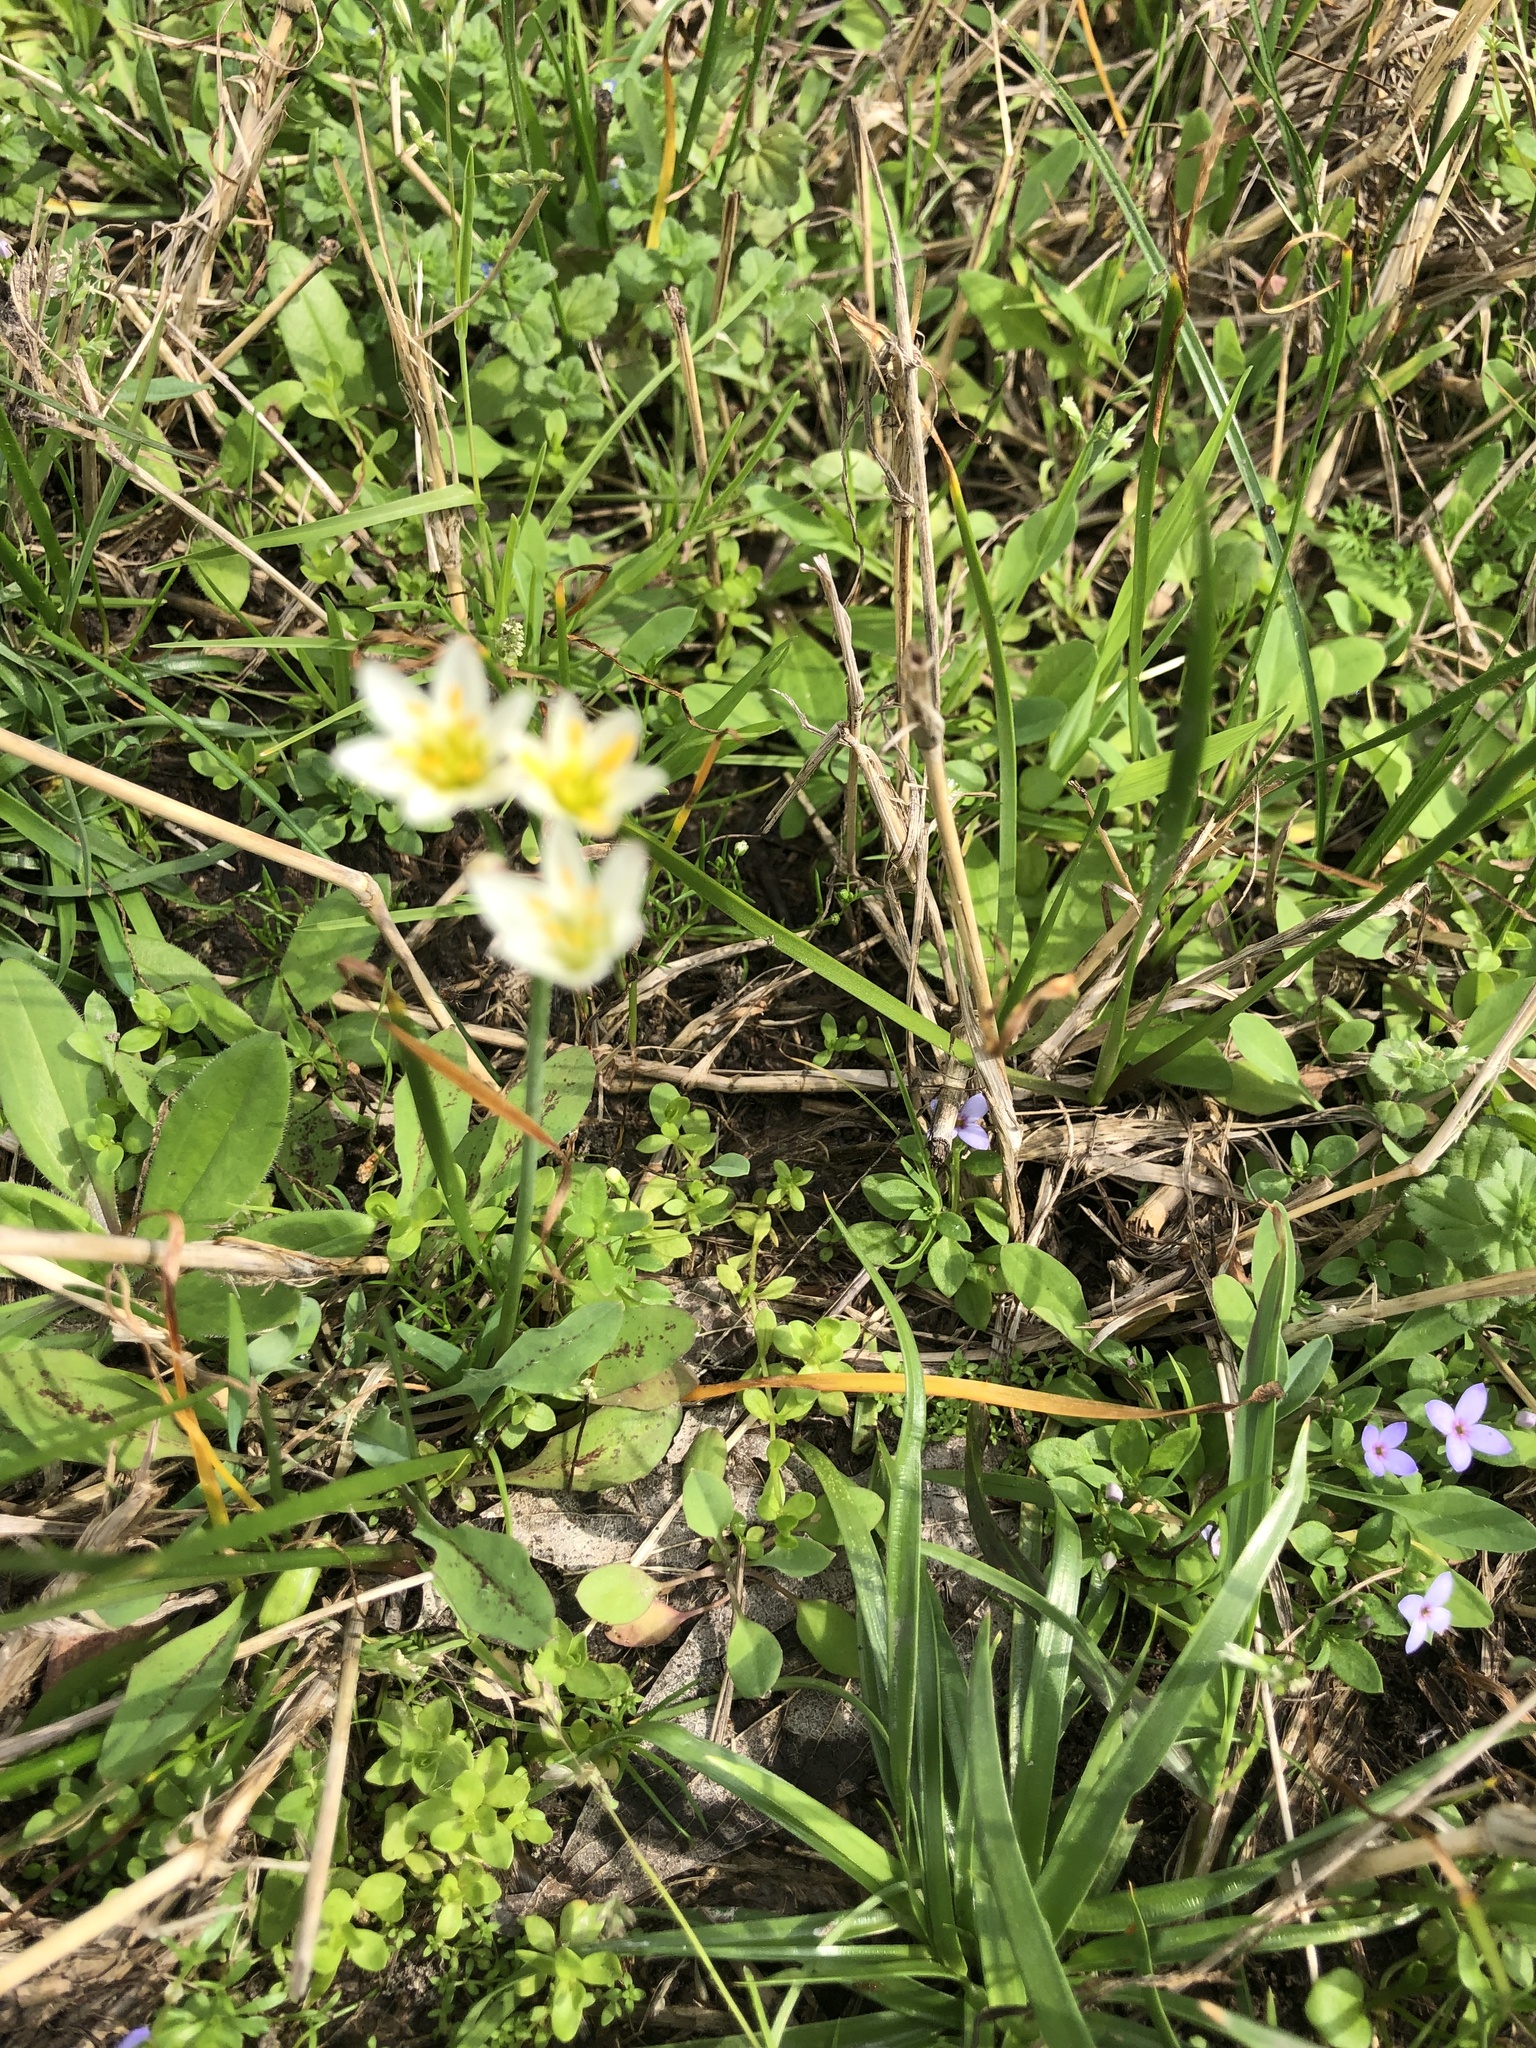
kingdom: Plantae
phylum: Tracheophyta
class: Liliopsida
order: Asparagales
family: Amaryllidaceae
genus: Nothoscordum
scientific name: Nothoscordum bivalve
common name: Crow-poison
